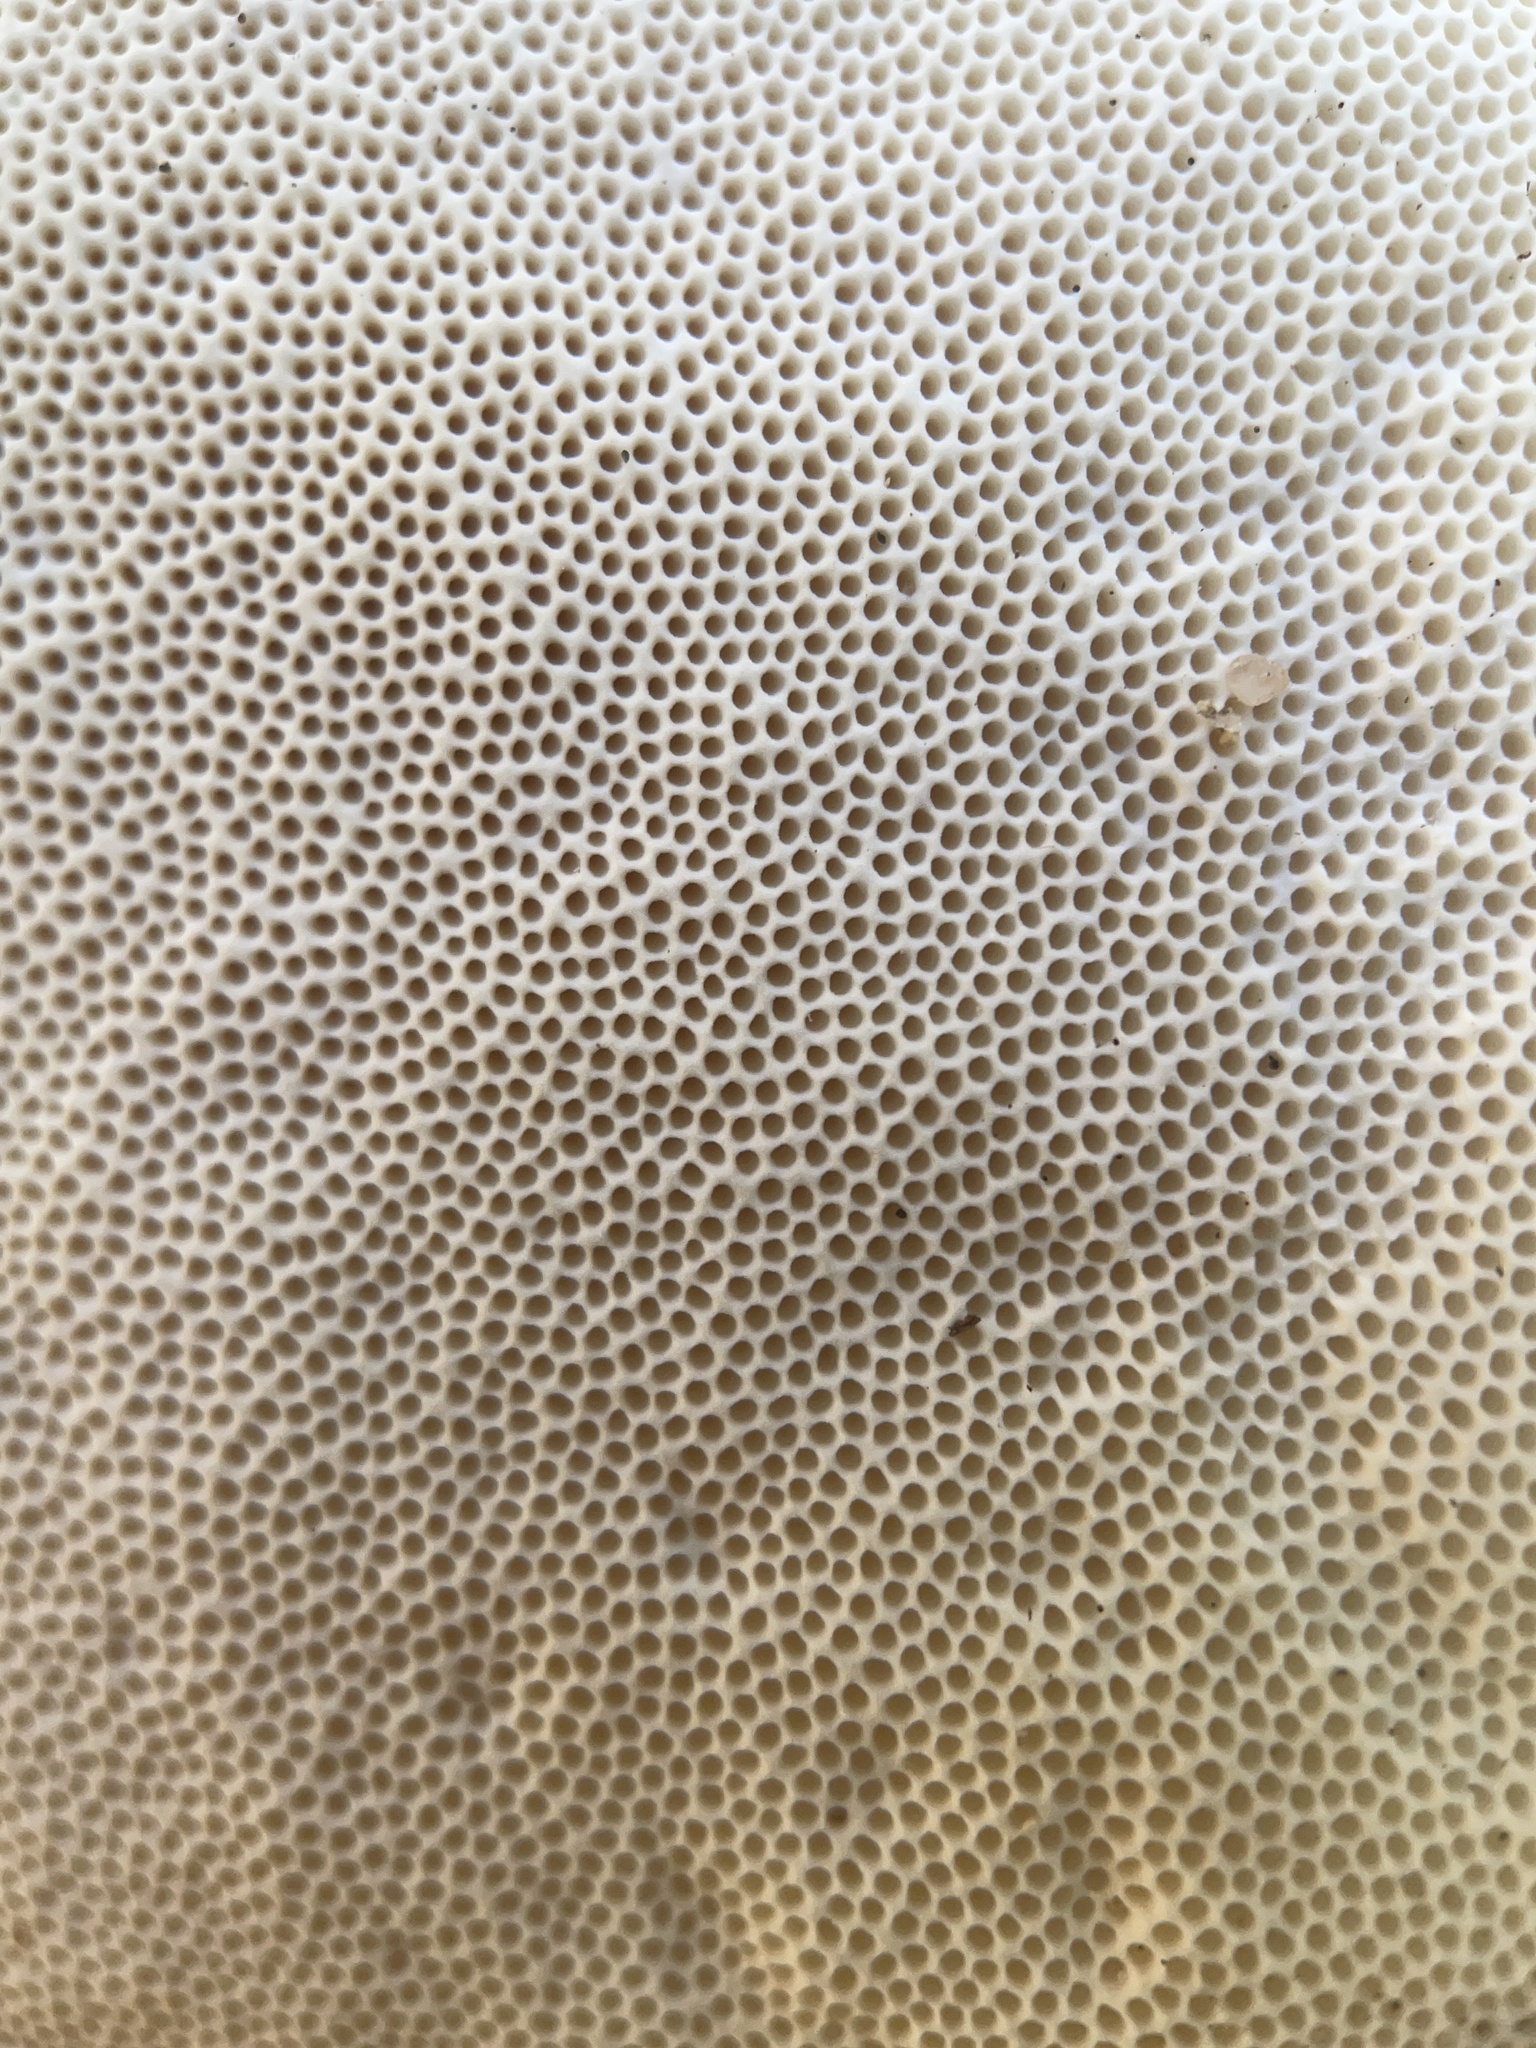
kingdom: Fungi
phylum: Basidiomycota
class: Agaricomycetes
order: Polyporales
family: Polyporaceae
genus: Trametes
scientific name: Trametes lactinea
